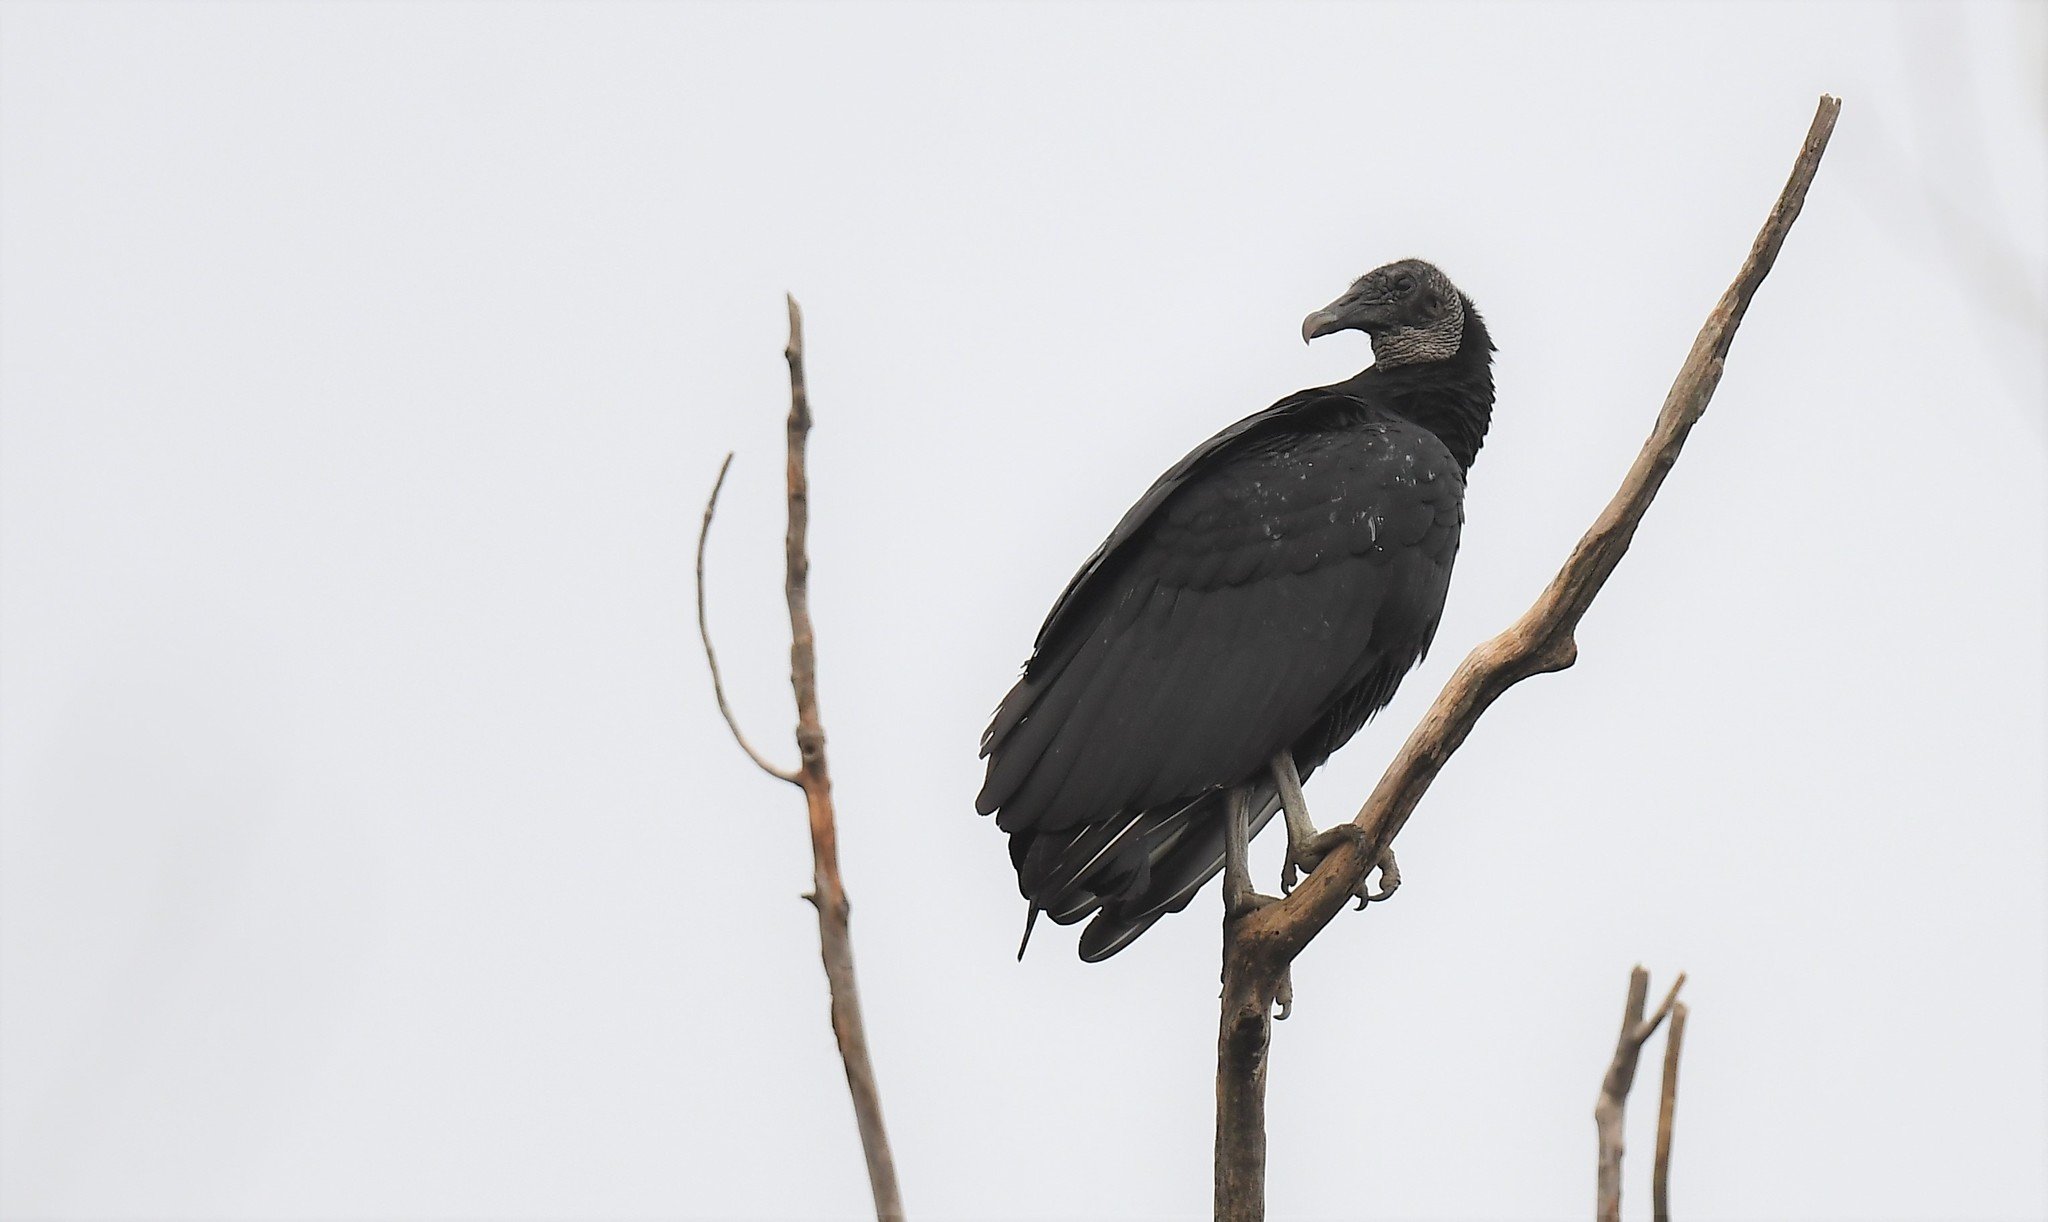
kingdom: Animalia
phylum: Chordata
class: Aves
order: Accipitriformes
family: Cathartidae
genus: Coragyps
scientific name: Coragyps atratus
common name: Black vulture
